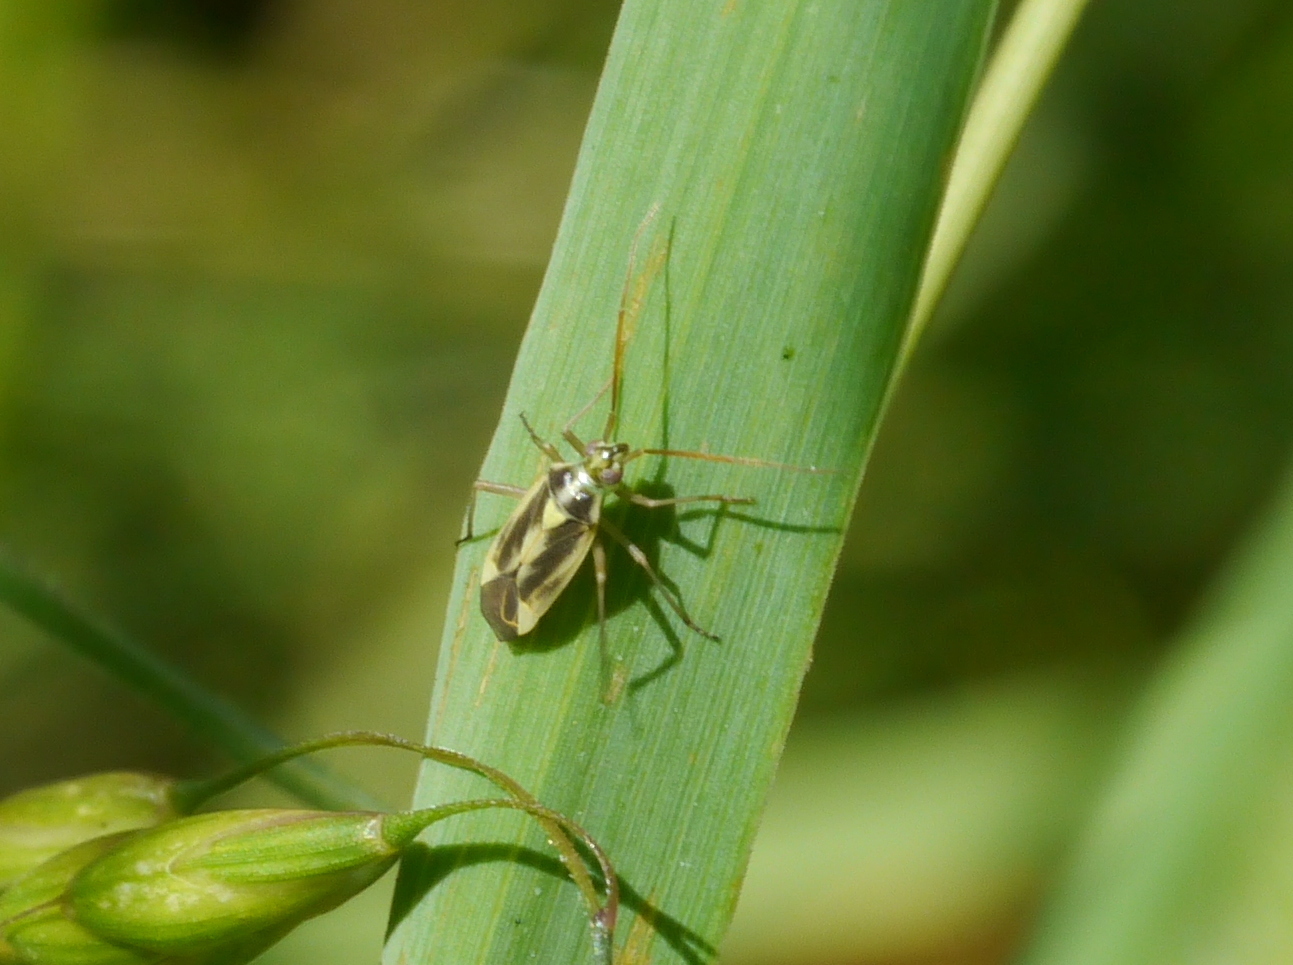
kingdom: Animalia
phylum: Arthropoda
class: Insecta
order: Hemiptera
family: Miridae
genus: Stenotus
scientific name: Stenotus binotatus
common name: Plant bug
